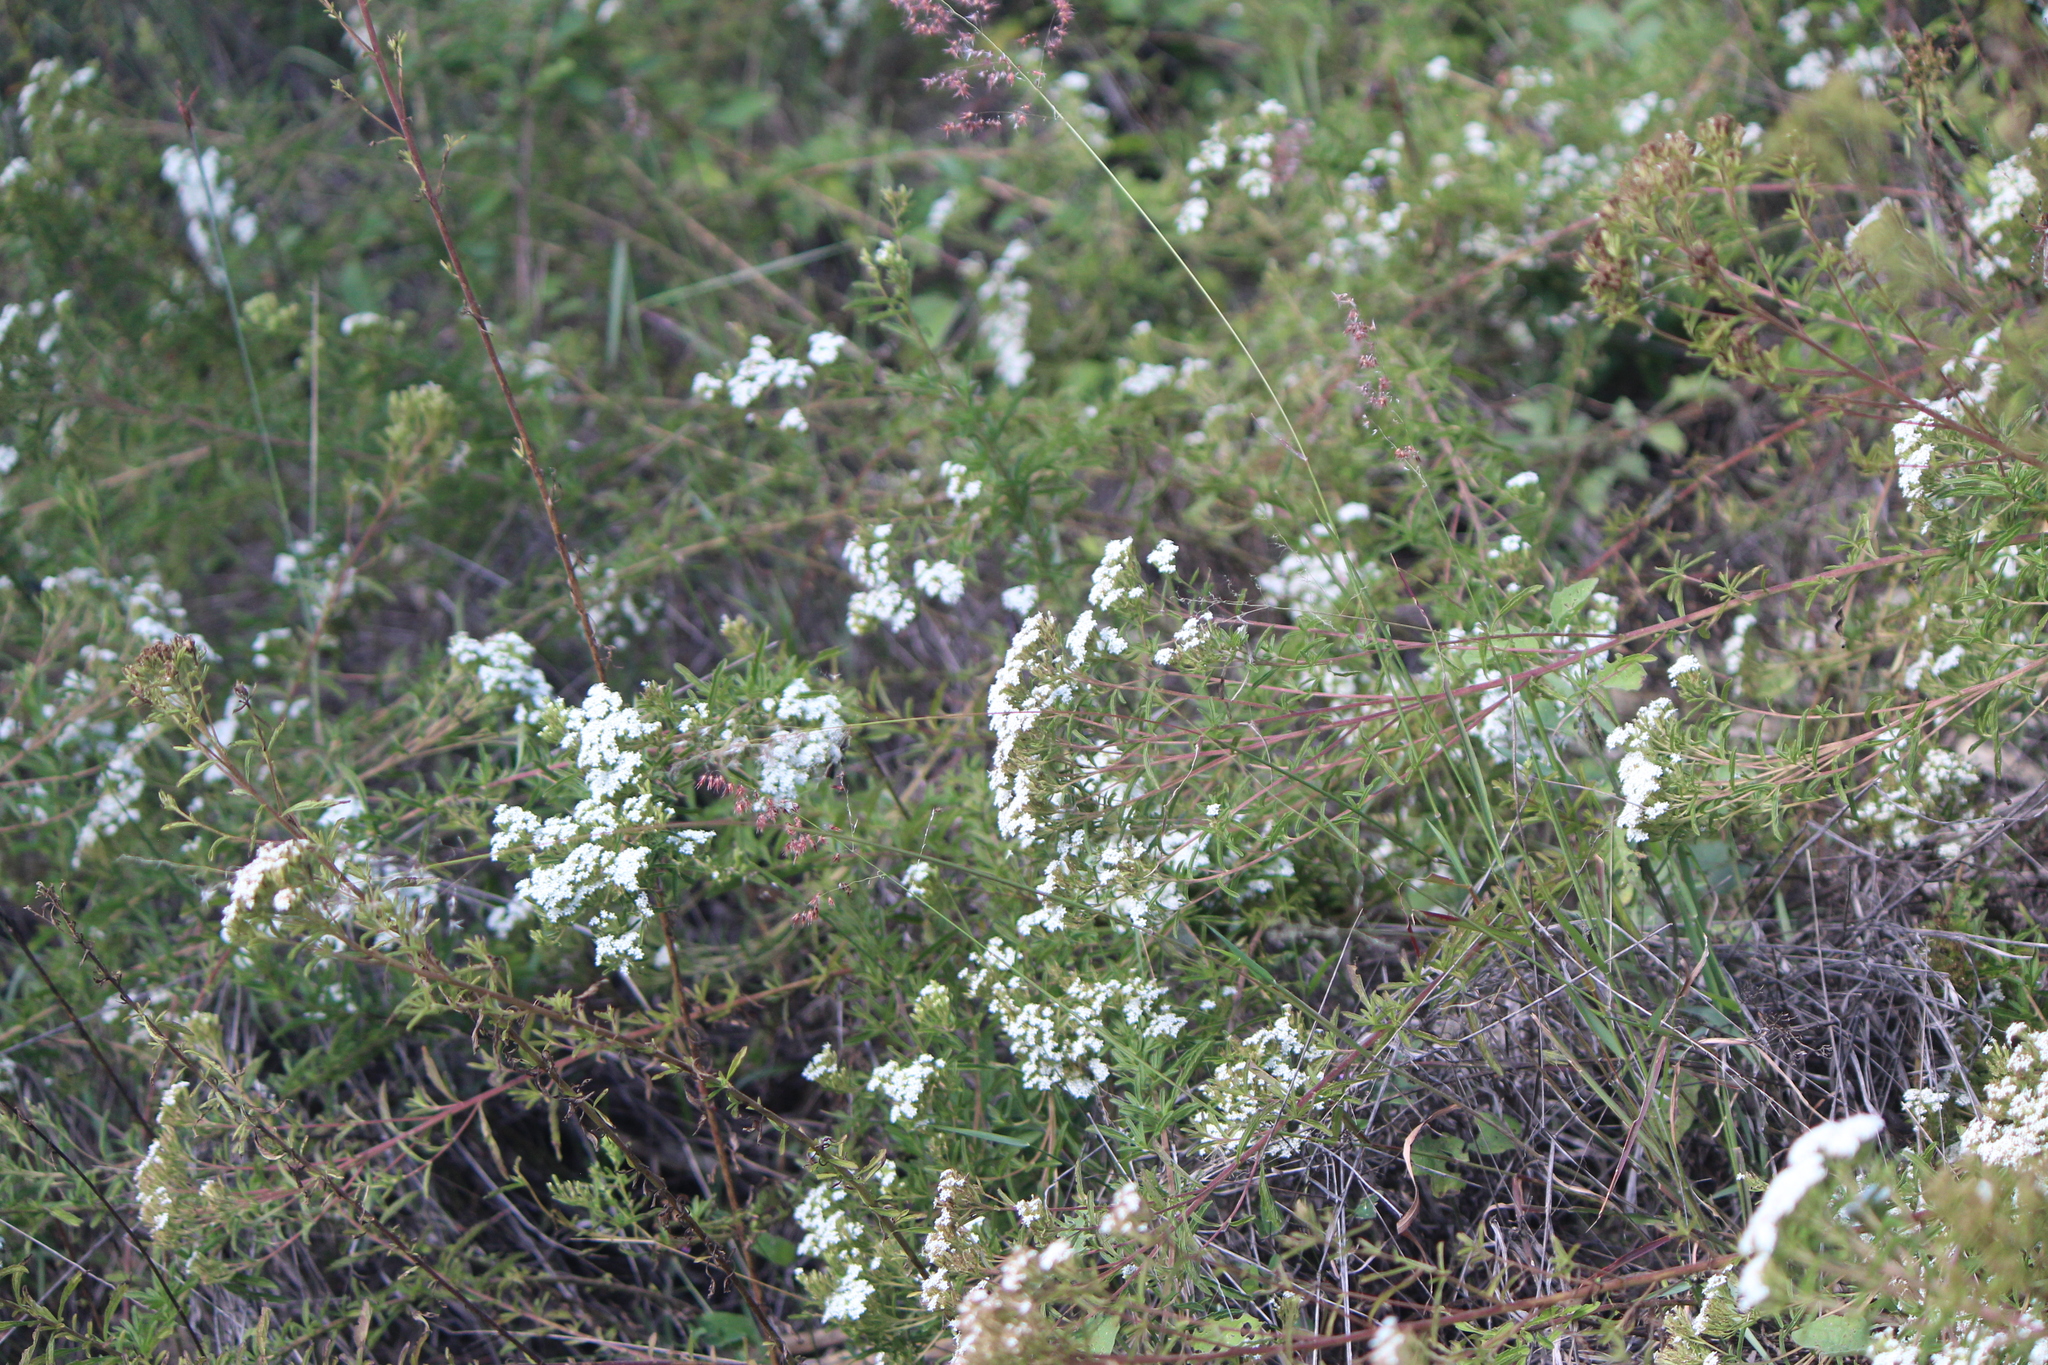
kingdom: Plantae
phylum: Tracheophyta
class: Magnoliopsida
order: Asterales
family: Asteraceae
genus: Stevia
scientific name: Stevia serrata
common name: Sawtooth candyleaf
